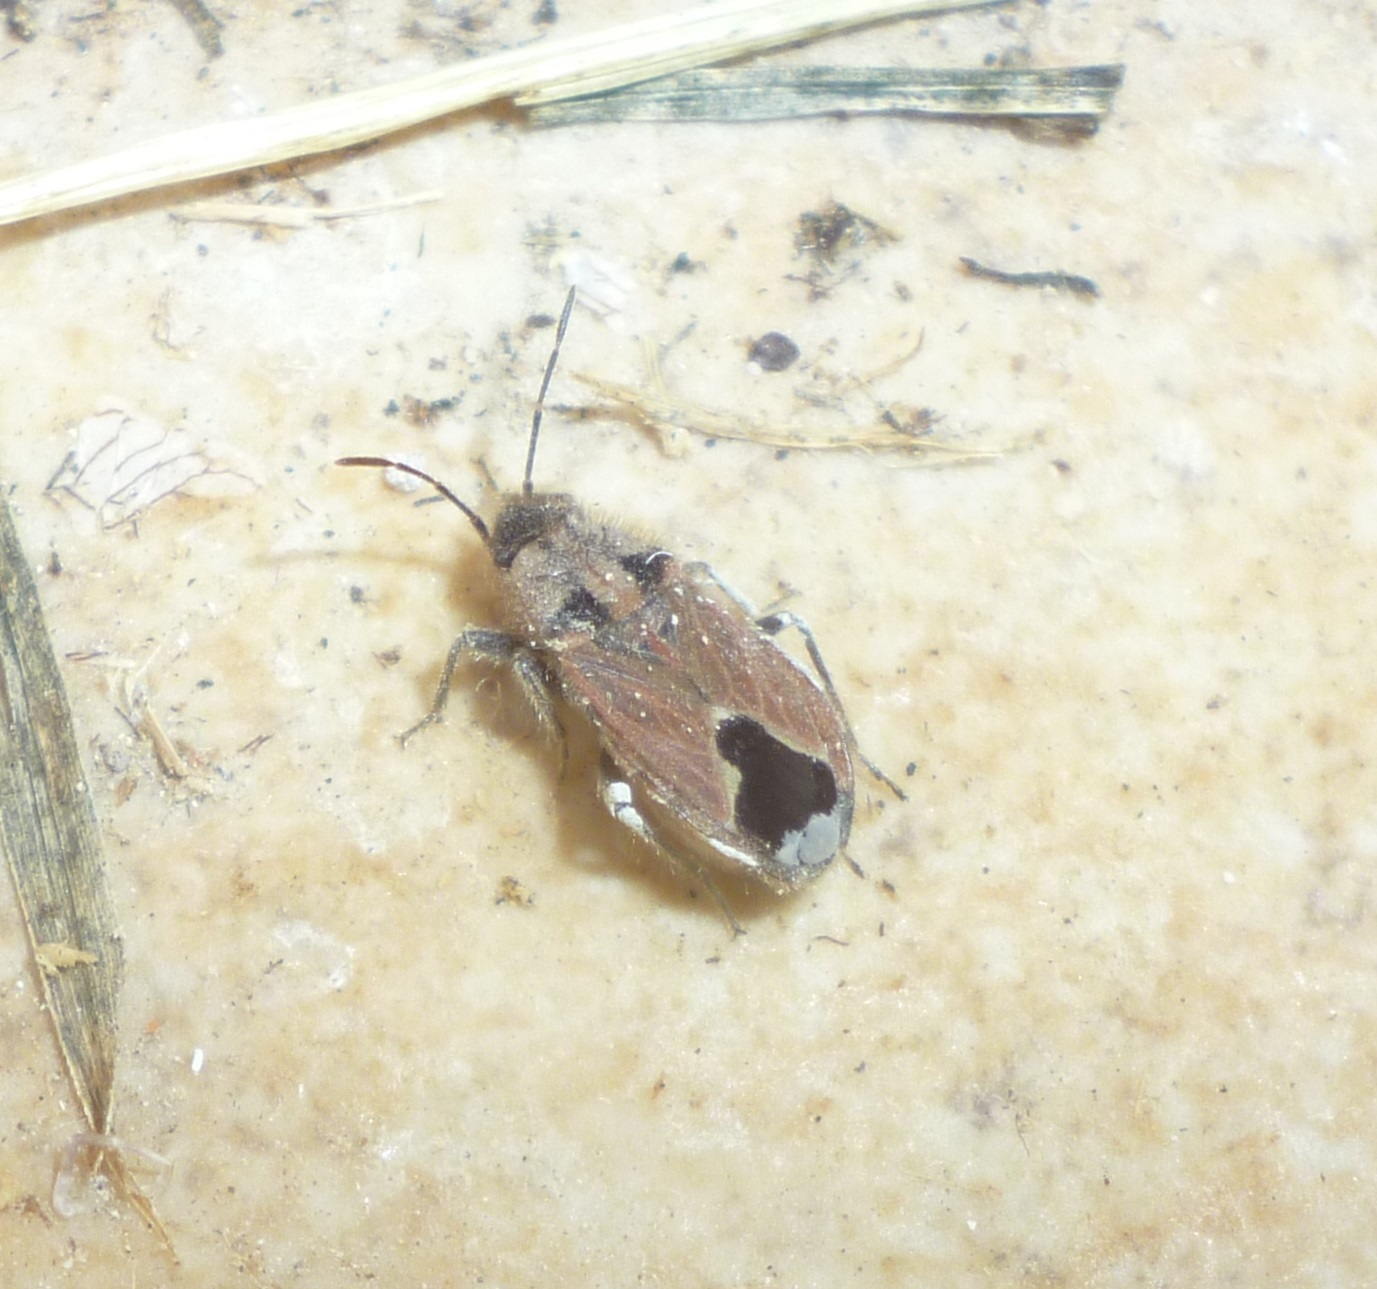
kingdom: Animalia
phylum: Arthropoda
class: Insecta
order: Hemiptera
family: Lygaeidae
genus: Melanotelus
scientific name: Melanotelus villosulus
